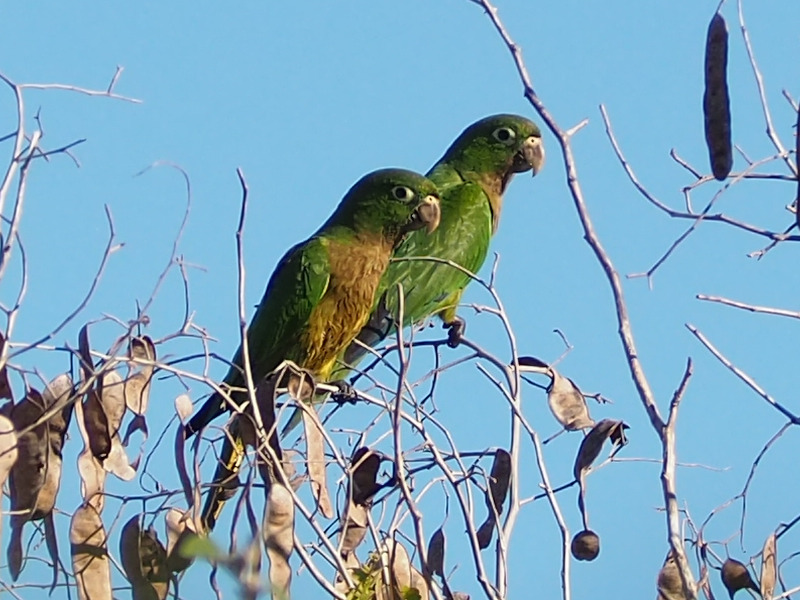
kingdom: Animalia
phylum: Chordata
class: Aves
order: Psittaciformes
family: Psittacidae
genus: Aratinga
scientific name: Aratinga nana
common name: Olive-throated parakeet
